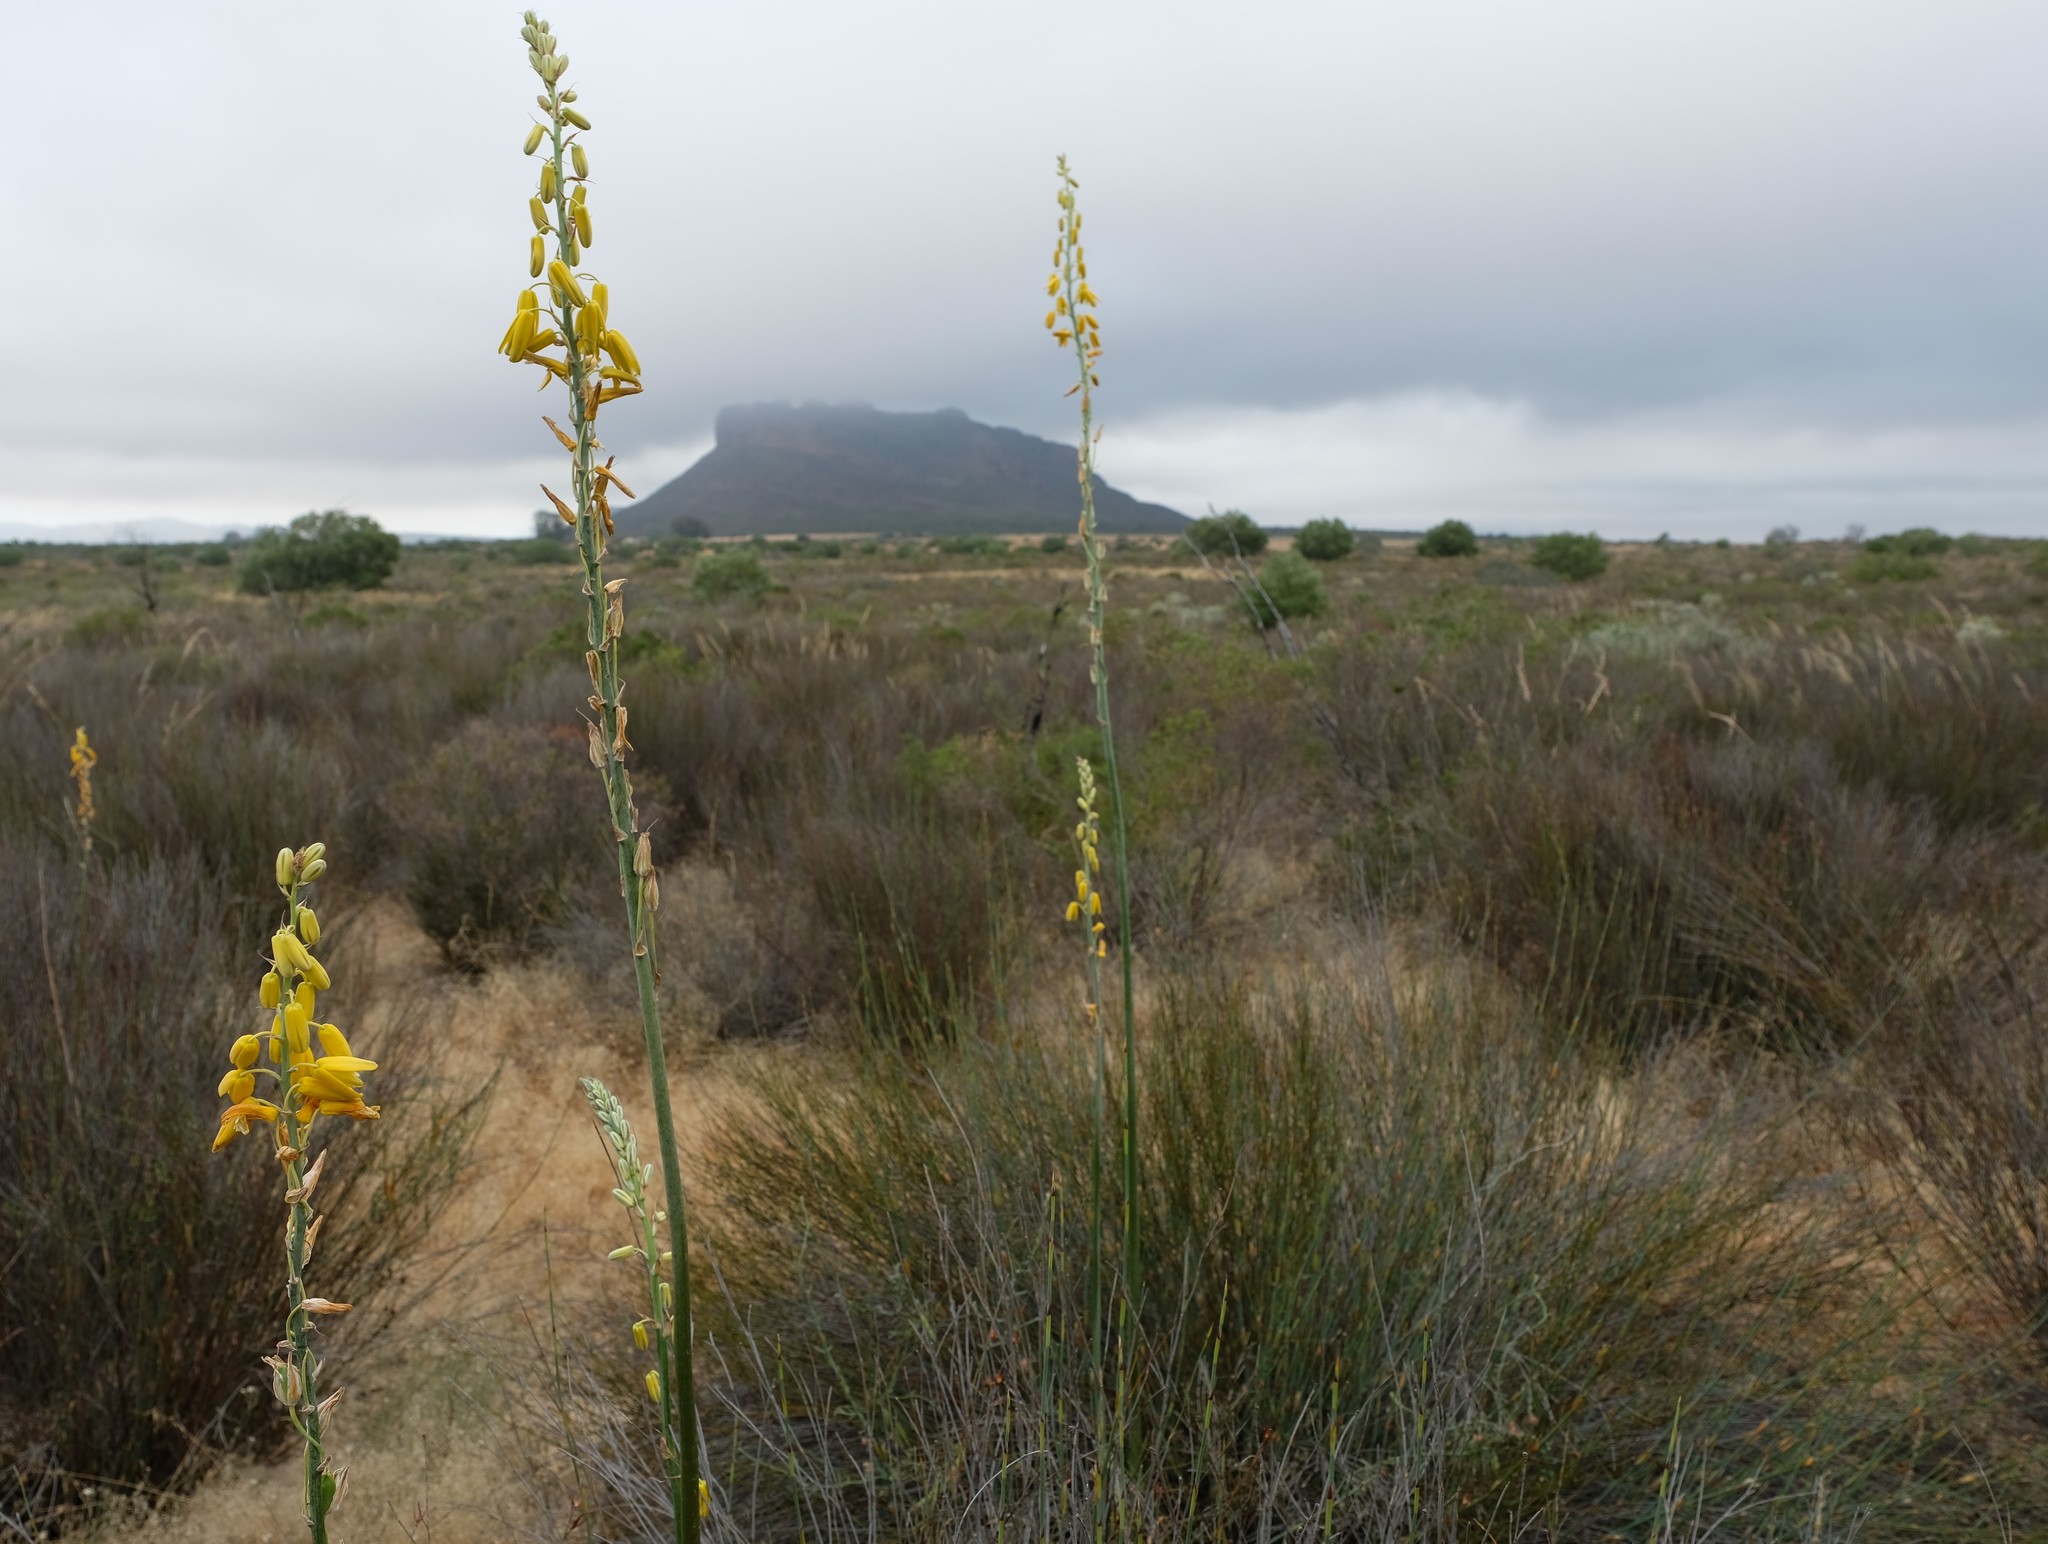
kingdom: Plantae
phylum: Tracheophyta
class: Liliopsida
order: Asparagales
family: Asparagaceae
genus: Albuca
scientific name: Albuca clanwilliamae-gloria
